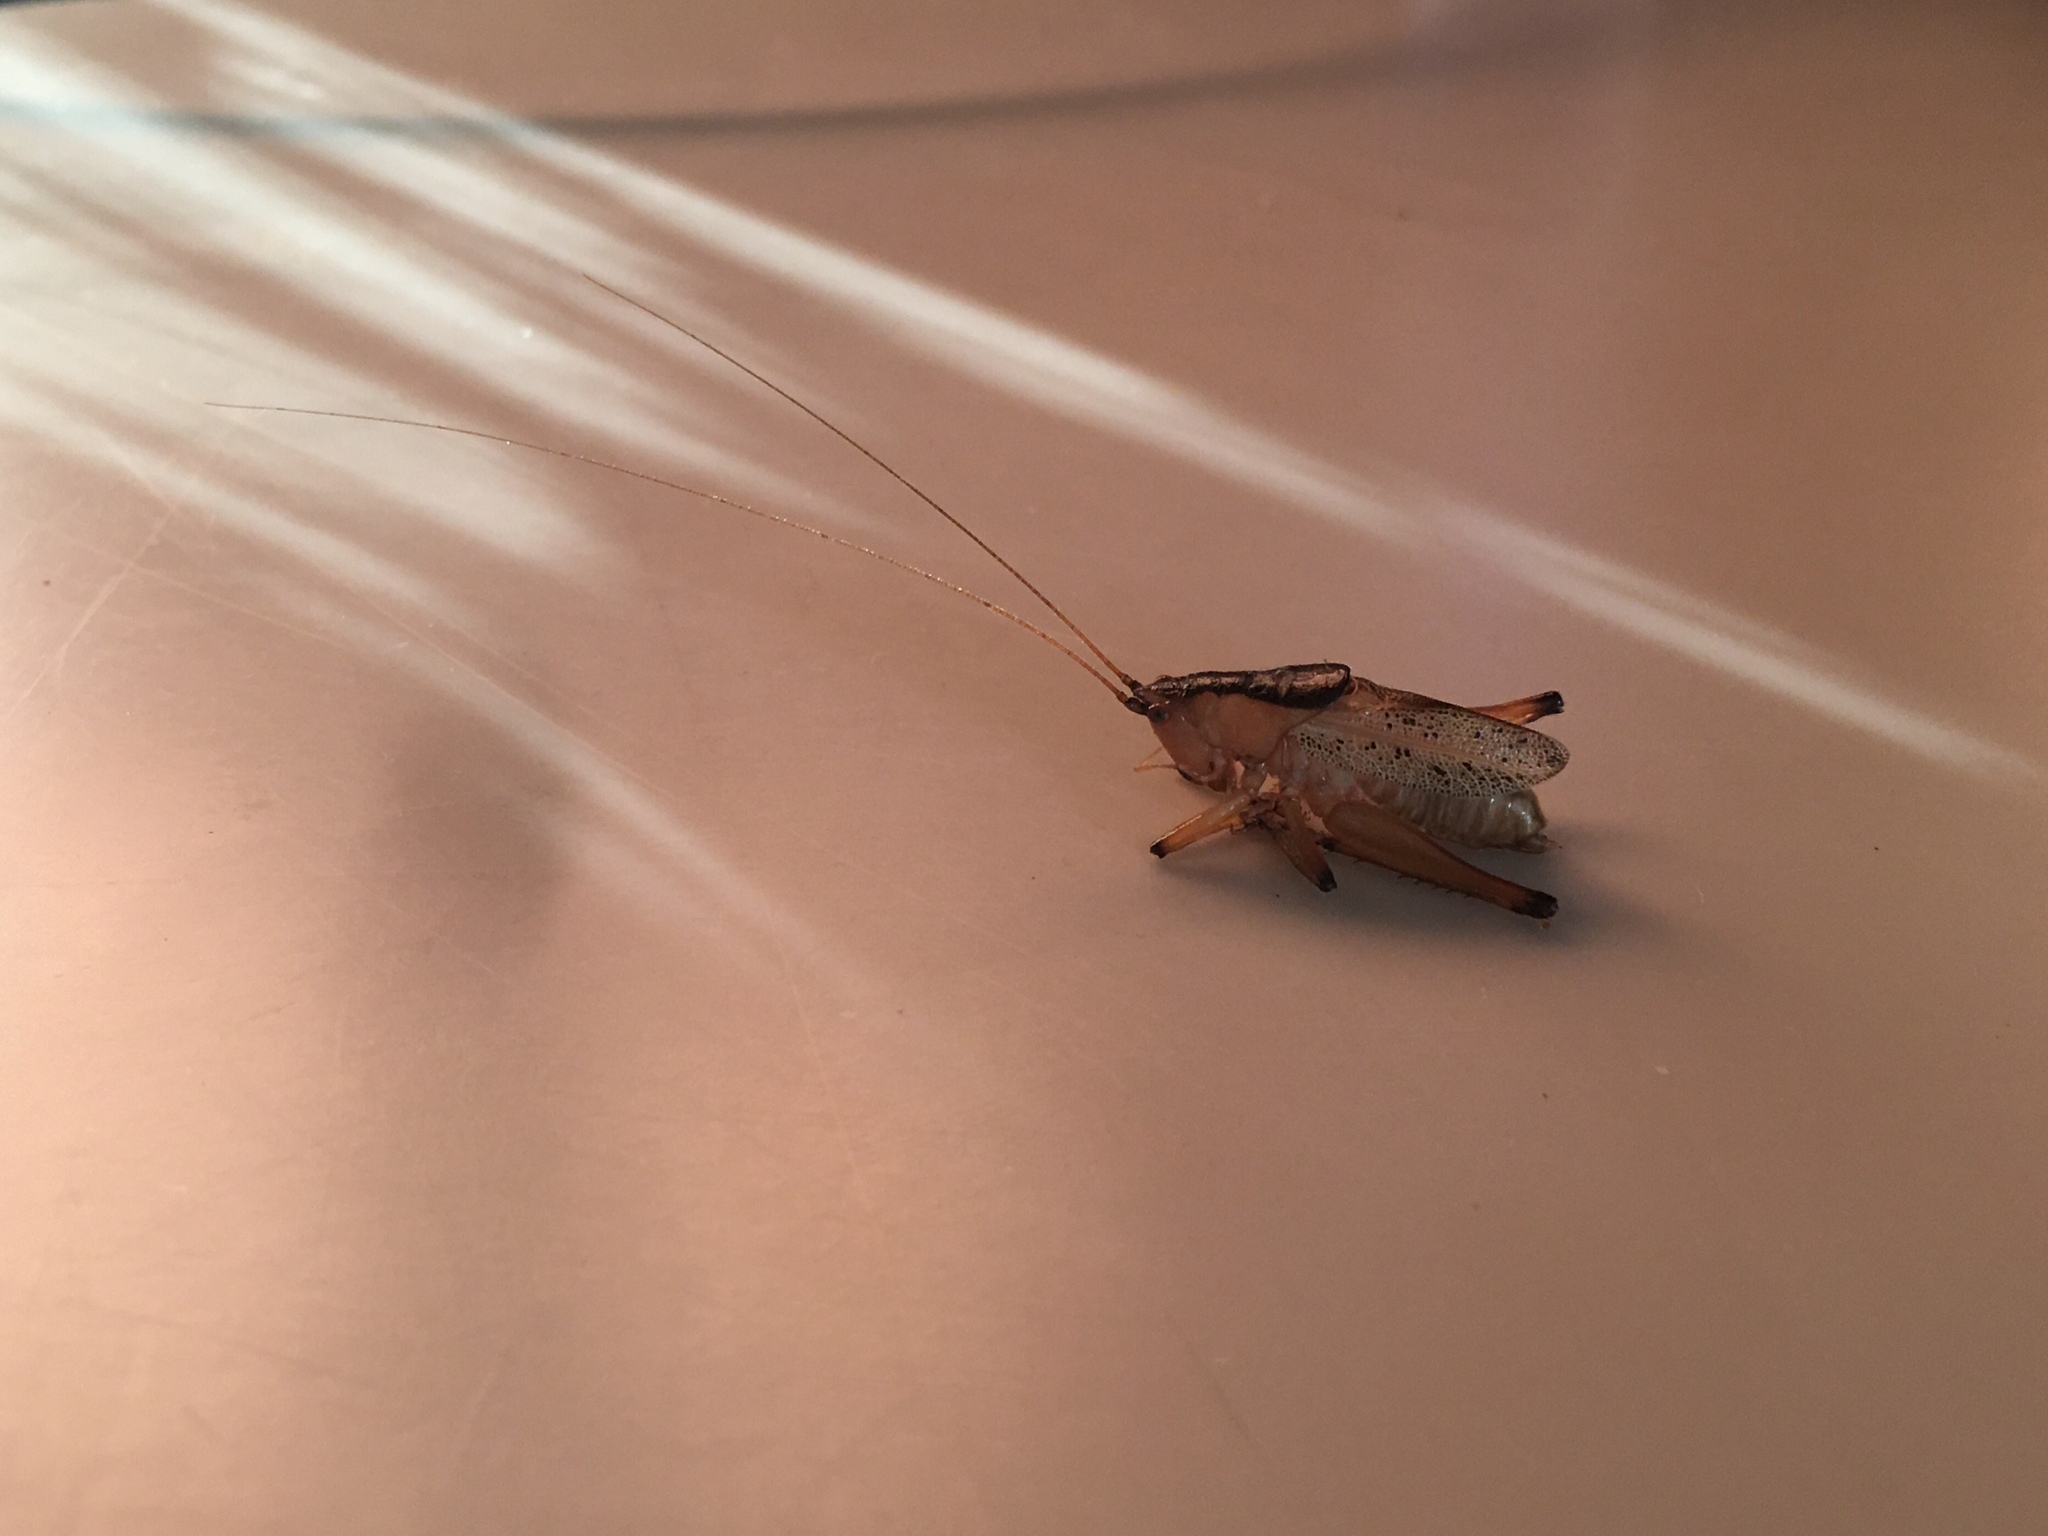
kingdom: Animalia
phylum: Arthropoda
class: Insecta
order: Orthoptera
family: Tettigoniidae
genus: Agraecia
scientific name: Agraecia agraecioides
